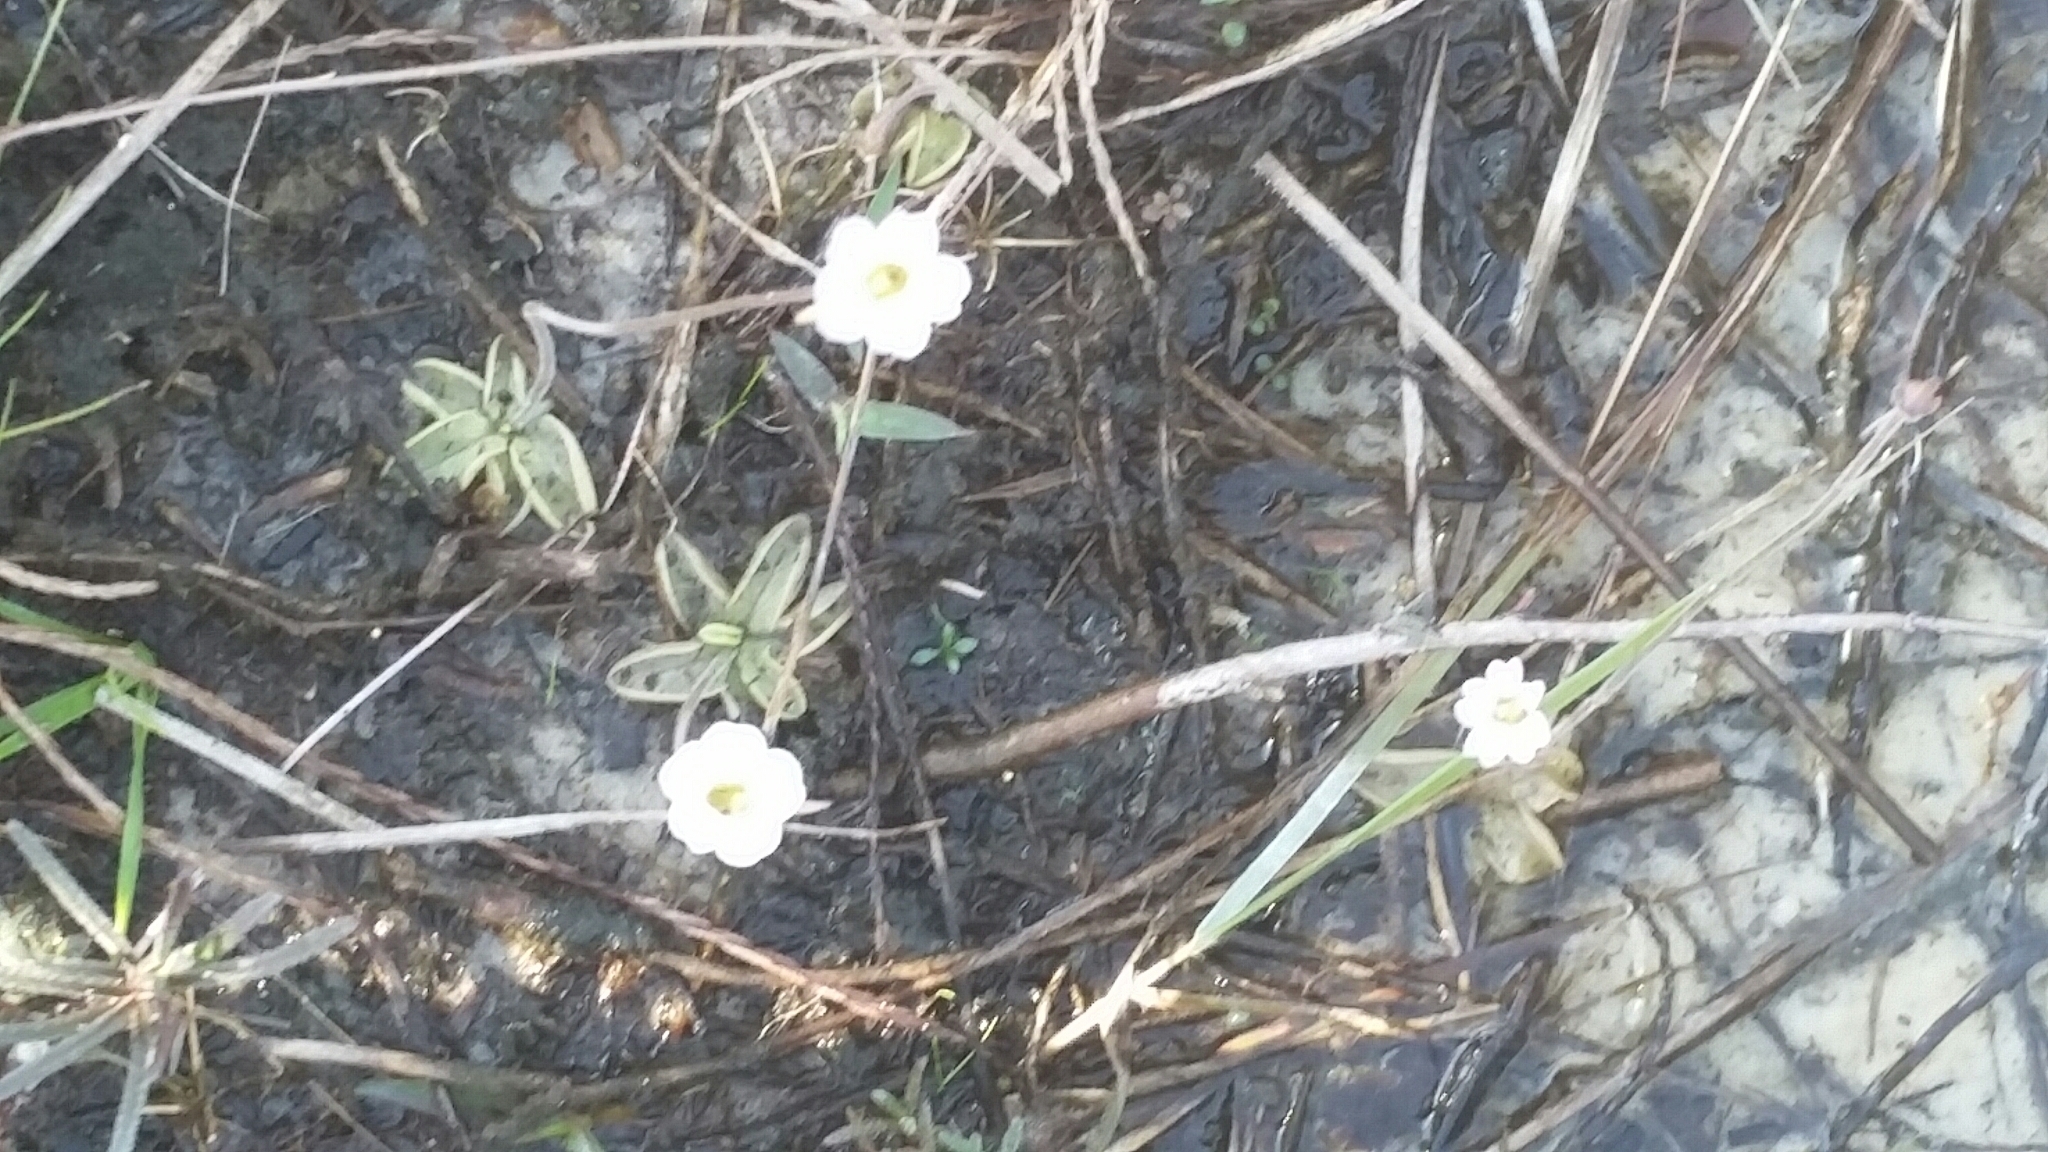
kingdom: Plantae
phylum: Tracheophyta
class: Magnoliopsida
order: Lamiales
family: Lentibulariaceae
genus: Pinguicula
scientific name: Pinguicula pumila
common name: Small butterwort
